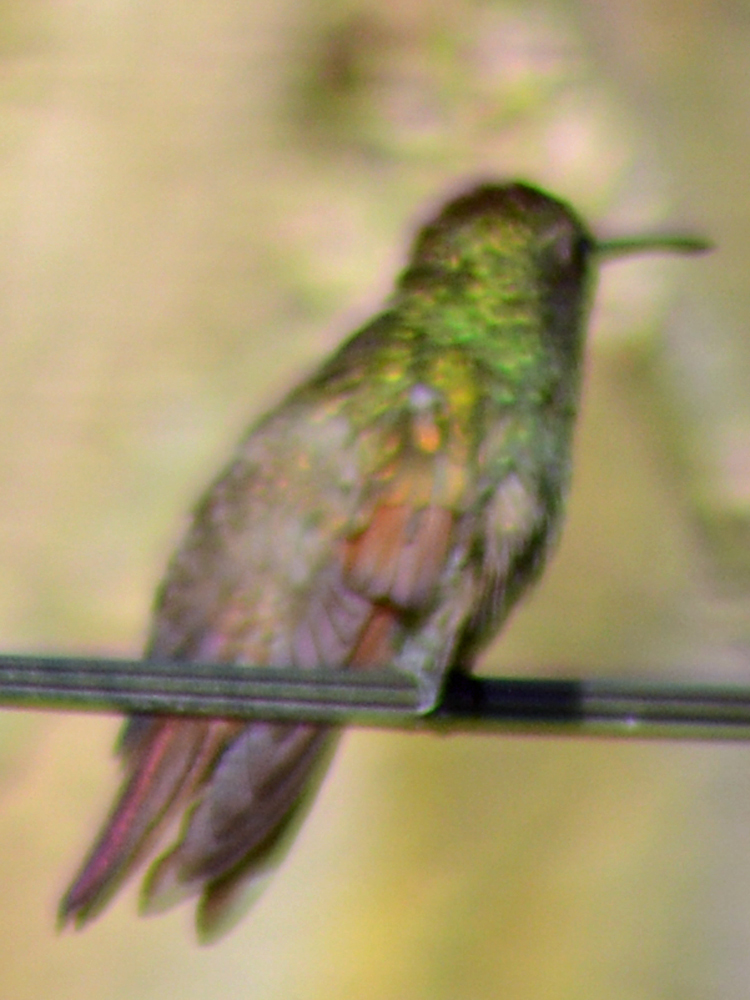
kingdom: Animalia
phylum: Chordata
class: Aves
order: Apodiformes
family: Trochilidae
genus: Saucerottia
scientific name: Saucerottia beryllina
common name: Berylline hummingbird
